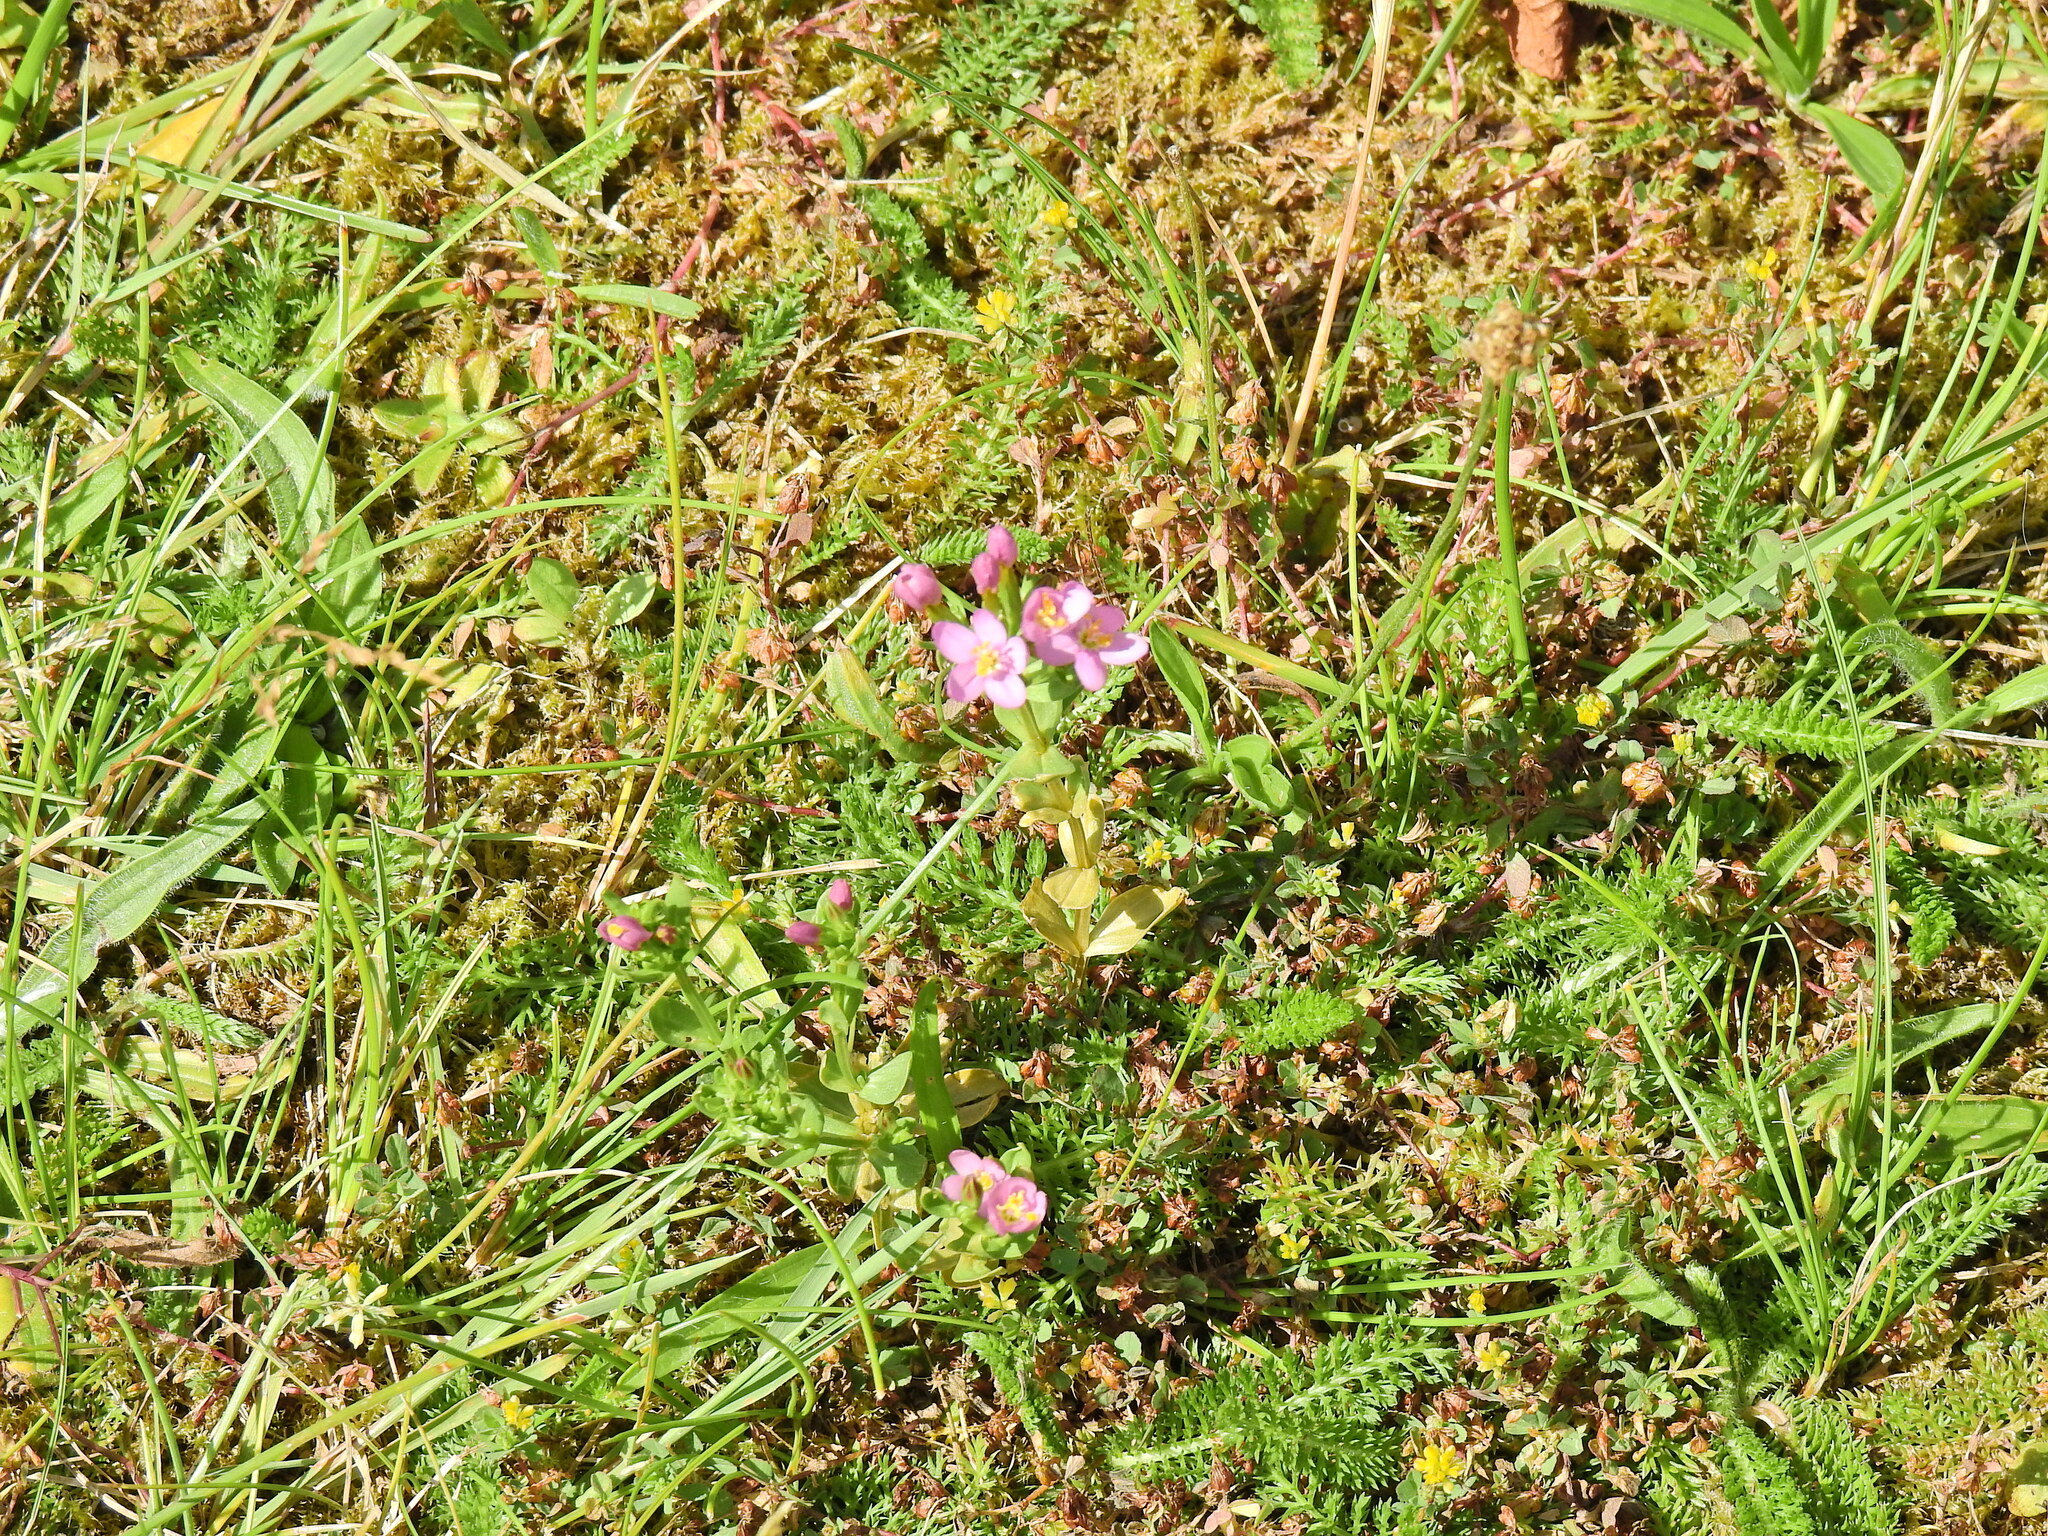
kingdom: Plantae
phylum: Tracheophyta
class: Magnoliopsida
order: Gentianales
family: Gentianaceae
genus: Centaurium
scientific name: Centaurium erythraea
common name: Common centaury
